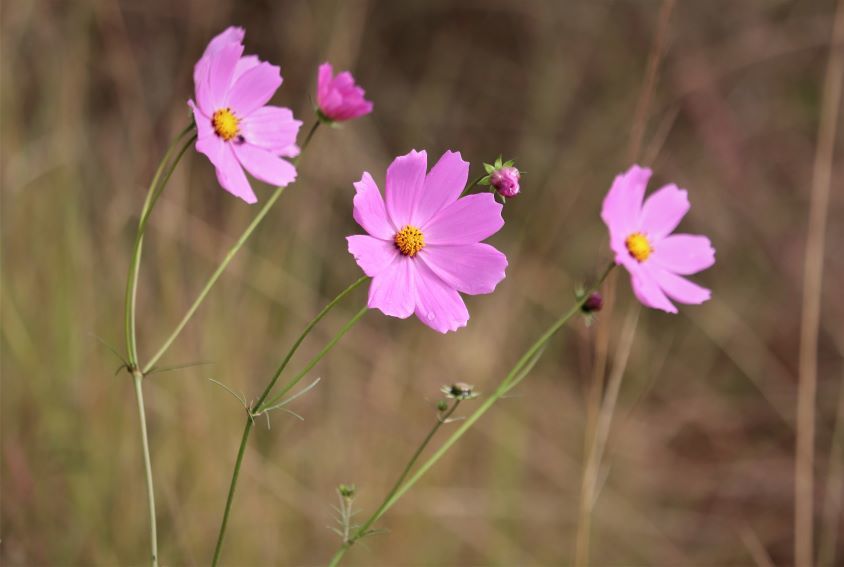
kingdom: Plantae
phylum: Tracheophyta
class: Magnoliopsida
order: Asterales
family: Asteraceae
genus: Cosmos
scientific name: Cosmos bipinnatus
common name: Garden cosmos
